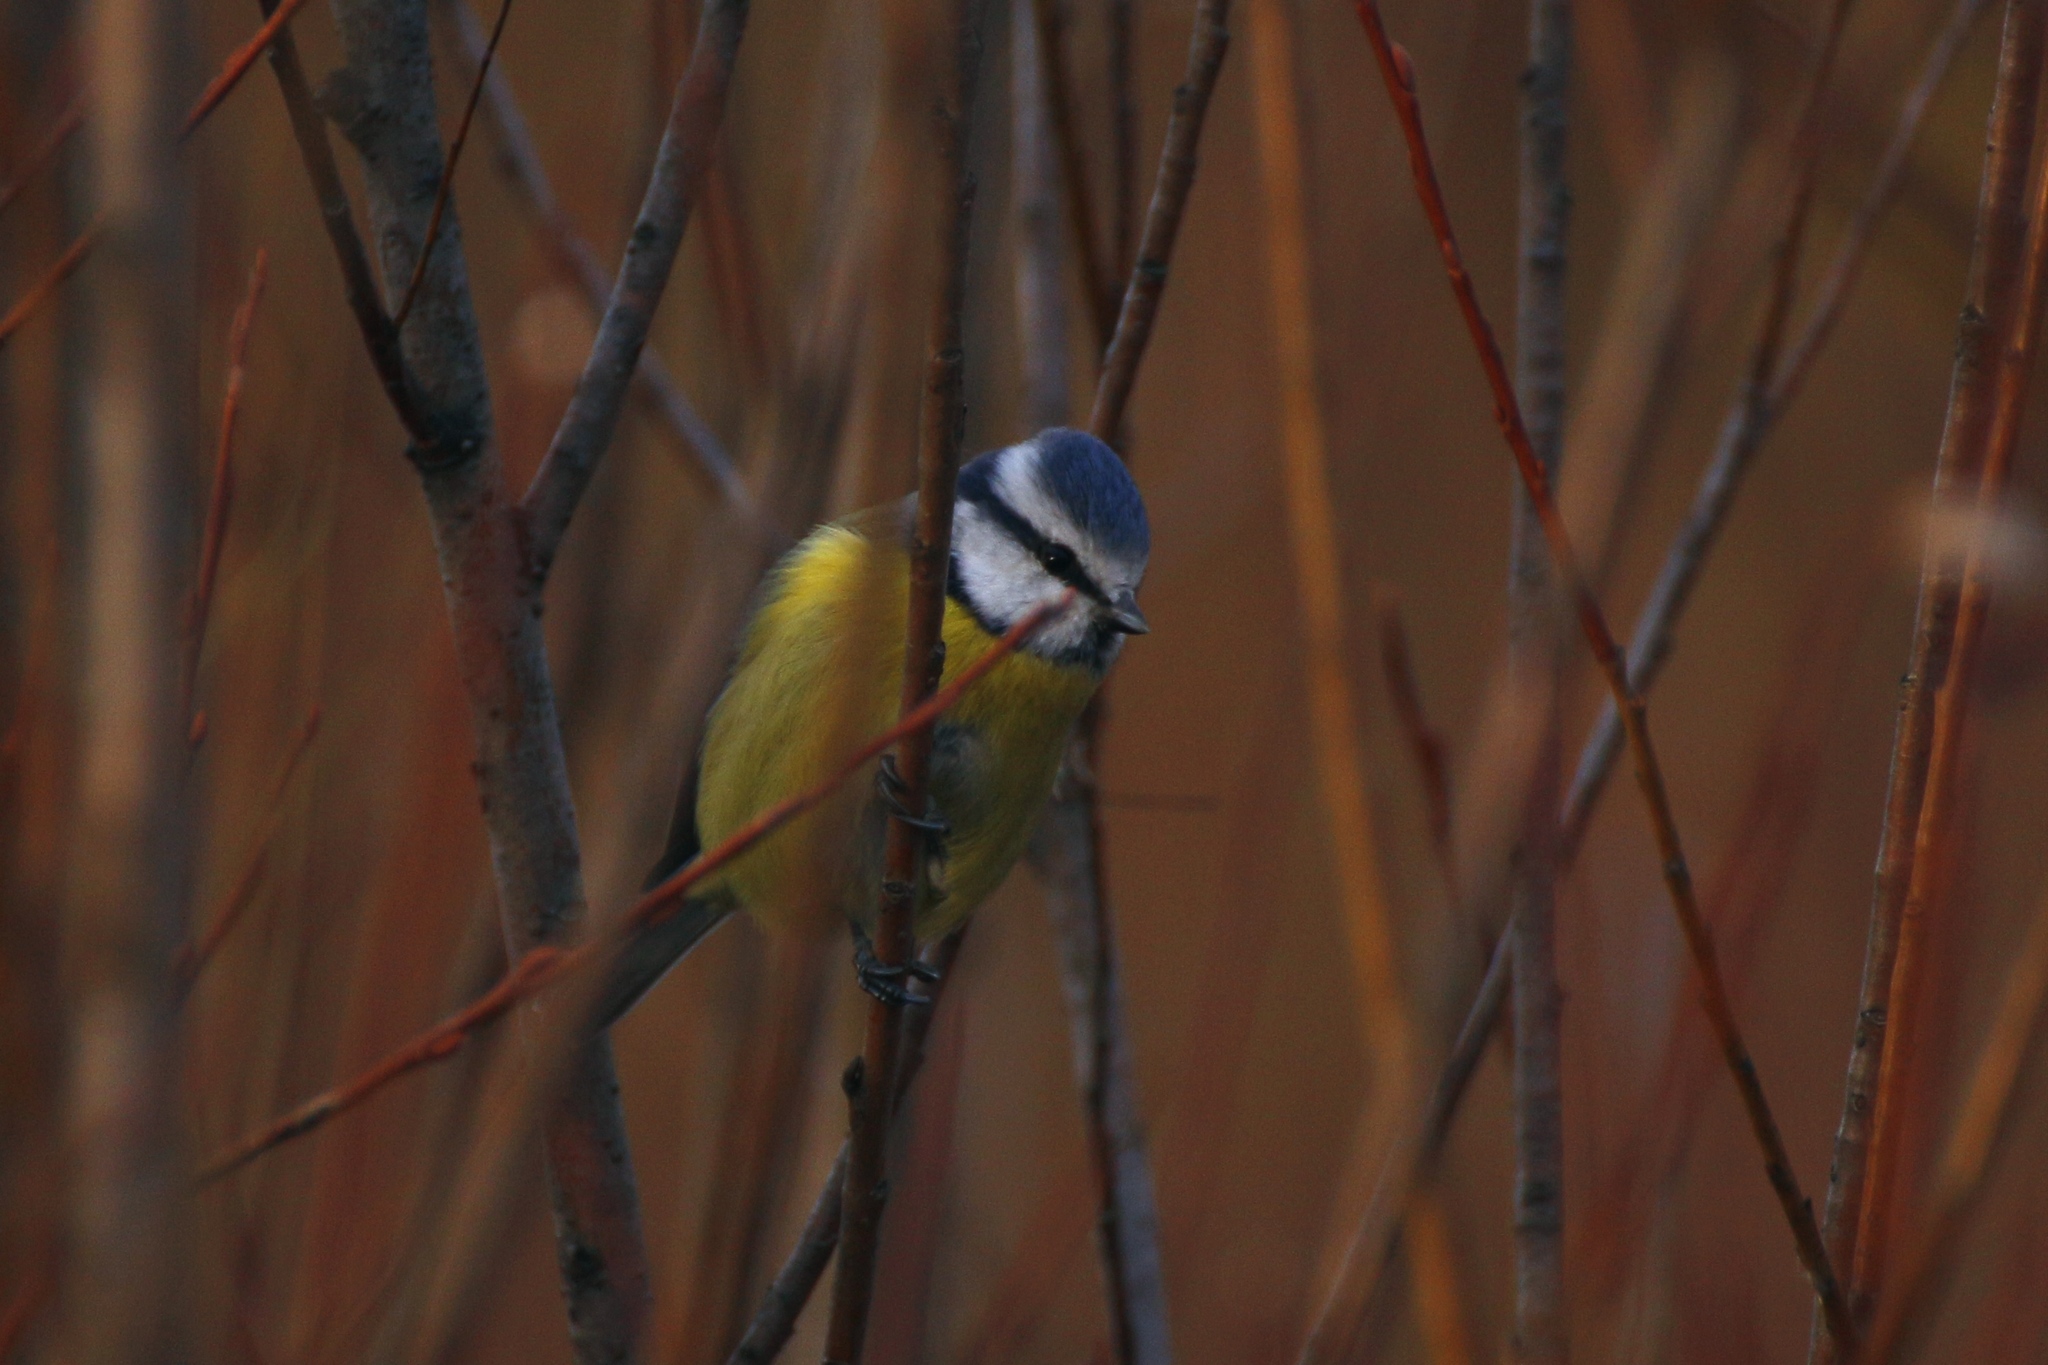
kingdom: Animalia
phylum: Chordata
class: Aves
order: Passeriformes
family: Paridae
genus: Cyanistes
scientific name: Cyanistes caeruleus
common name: Eurasian blue tit
